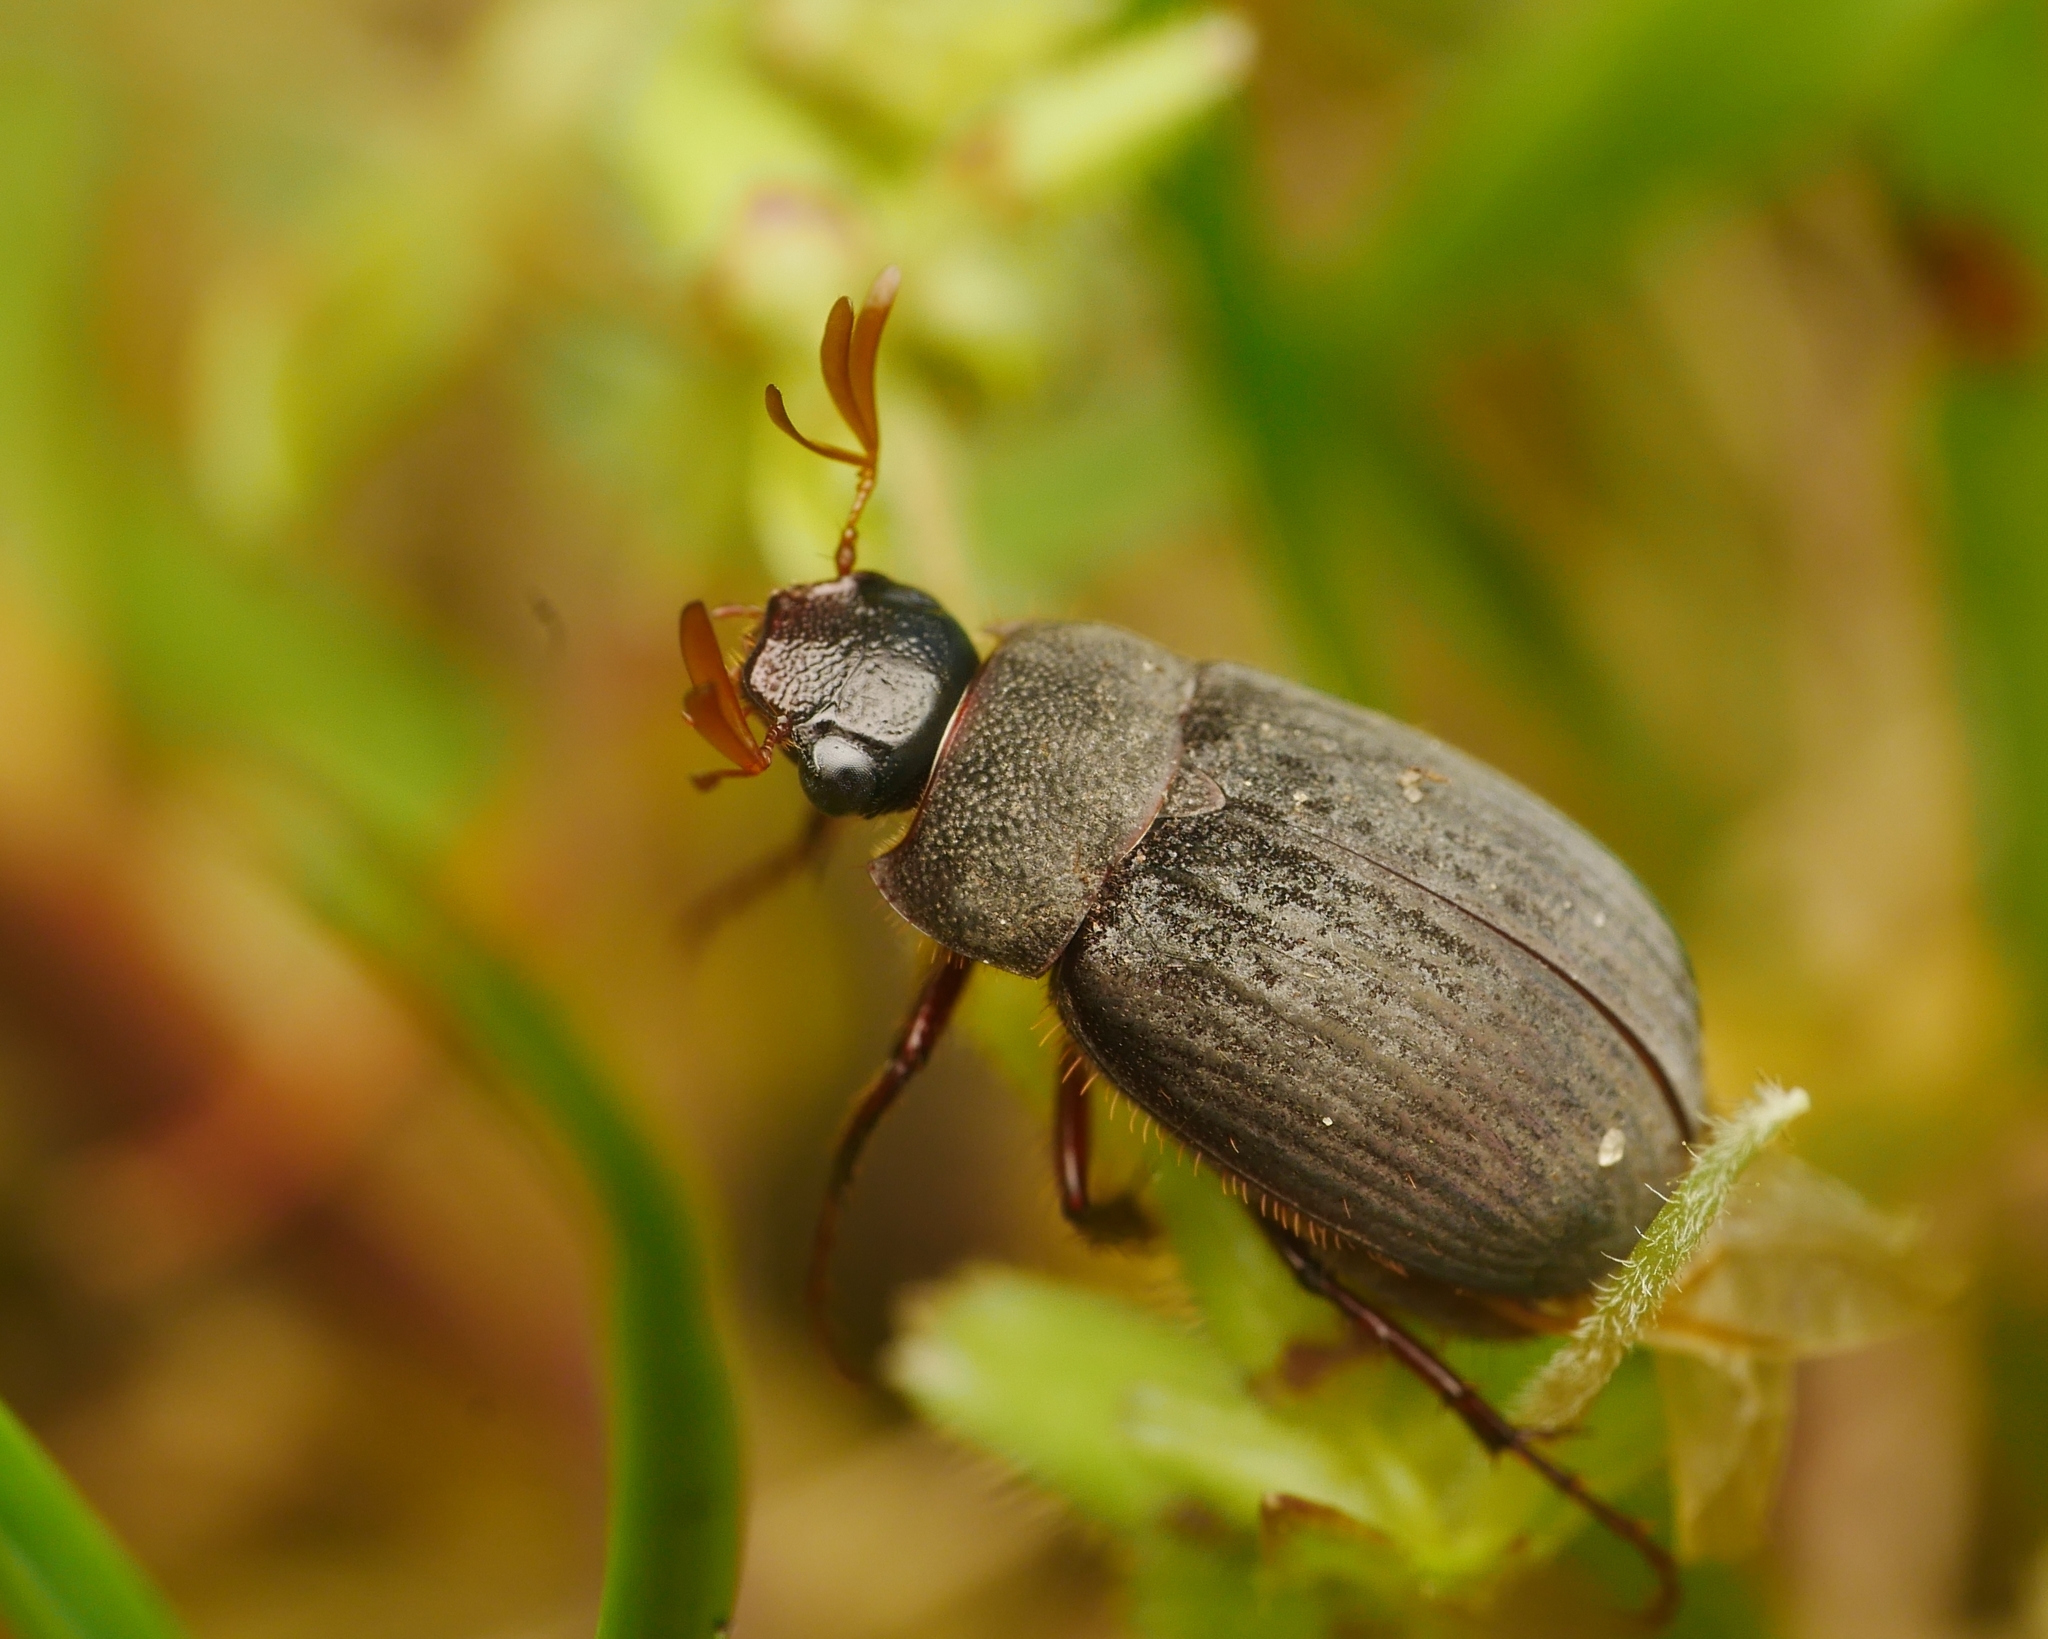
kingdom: Animalia
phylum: Arthropoda
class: Insecta
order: Coleoptera
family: Scarabaeidae
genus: Maladera
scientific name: Maladera holosericea
